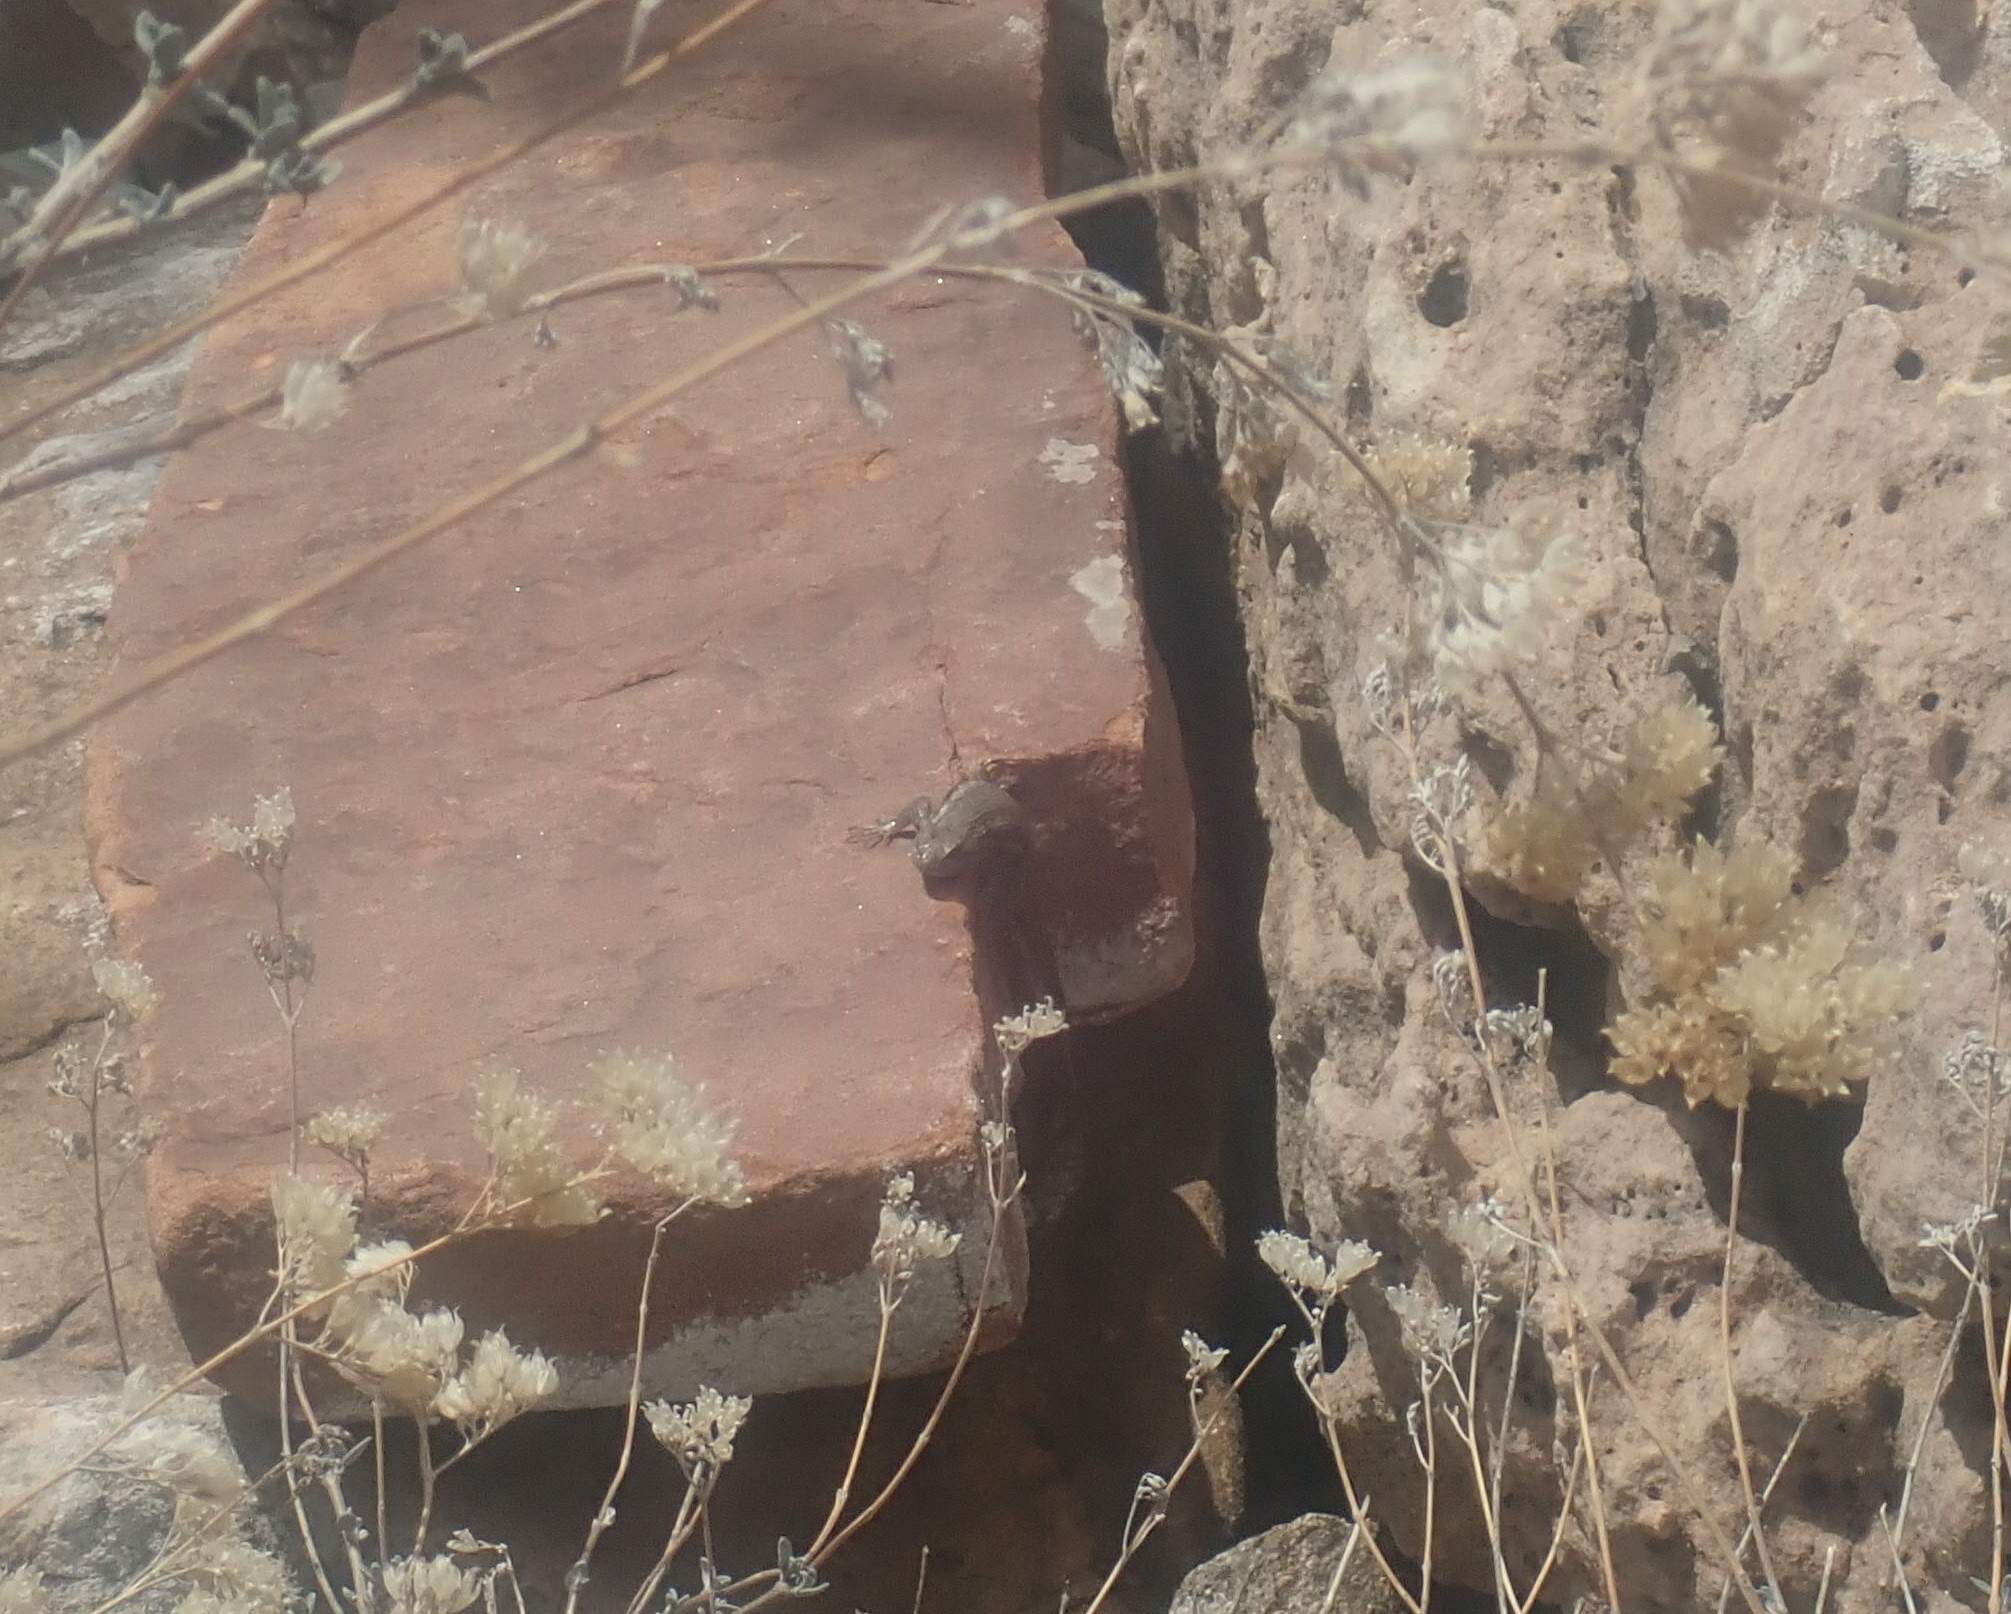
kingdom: Animalia
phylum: Chordata
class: Squamata
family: Phrynosomatidae
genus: Sceloporus
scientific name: Sceloporus
